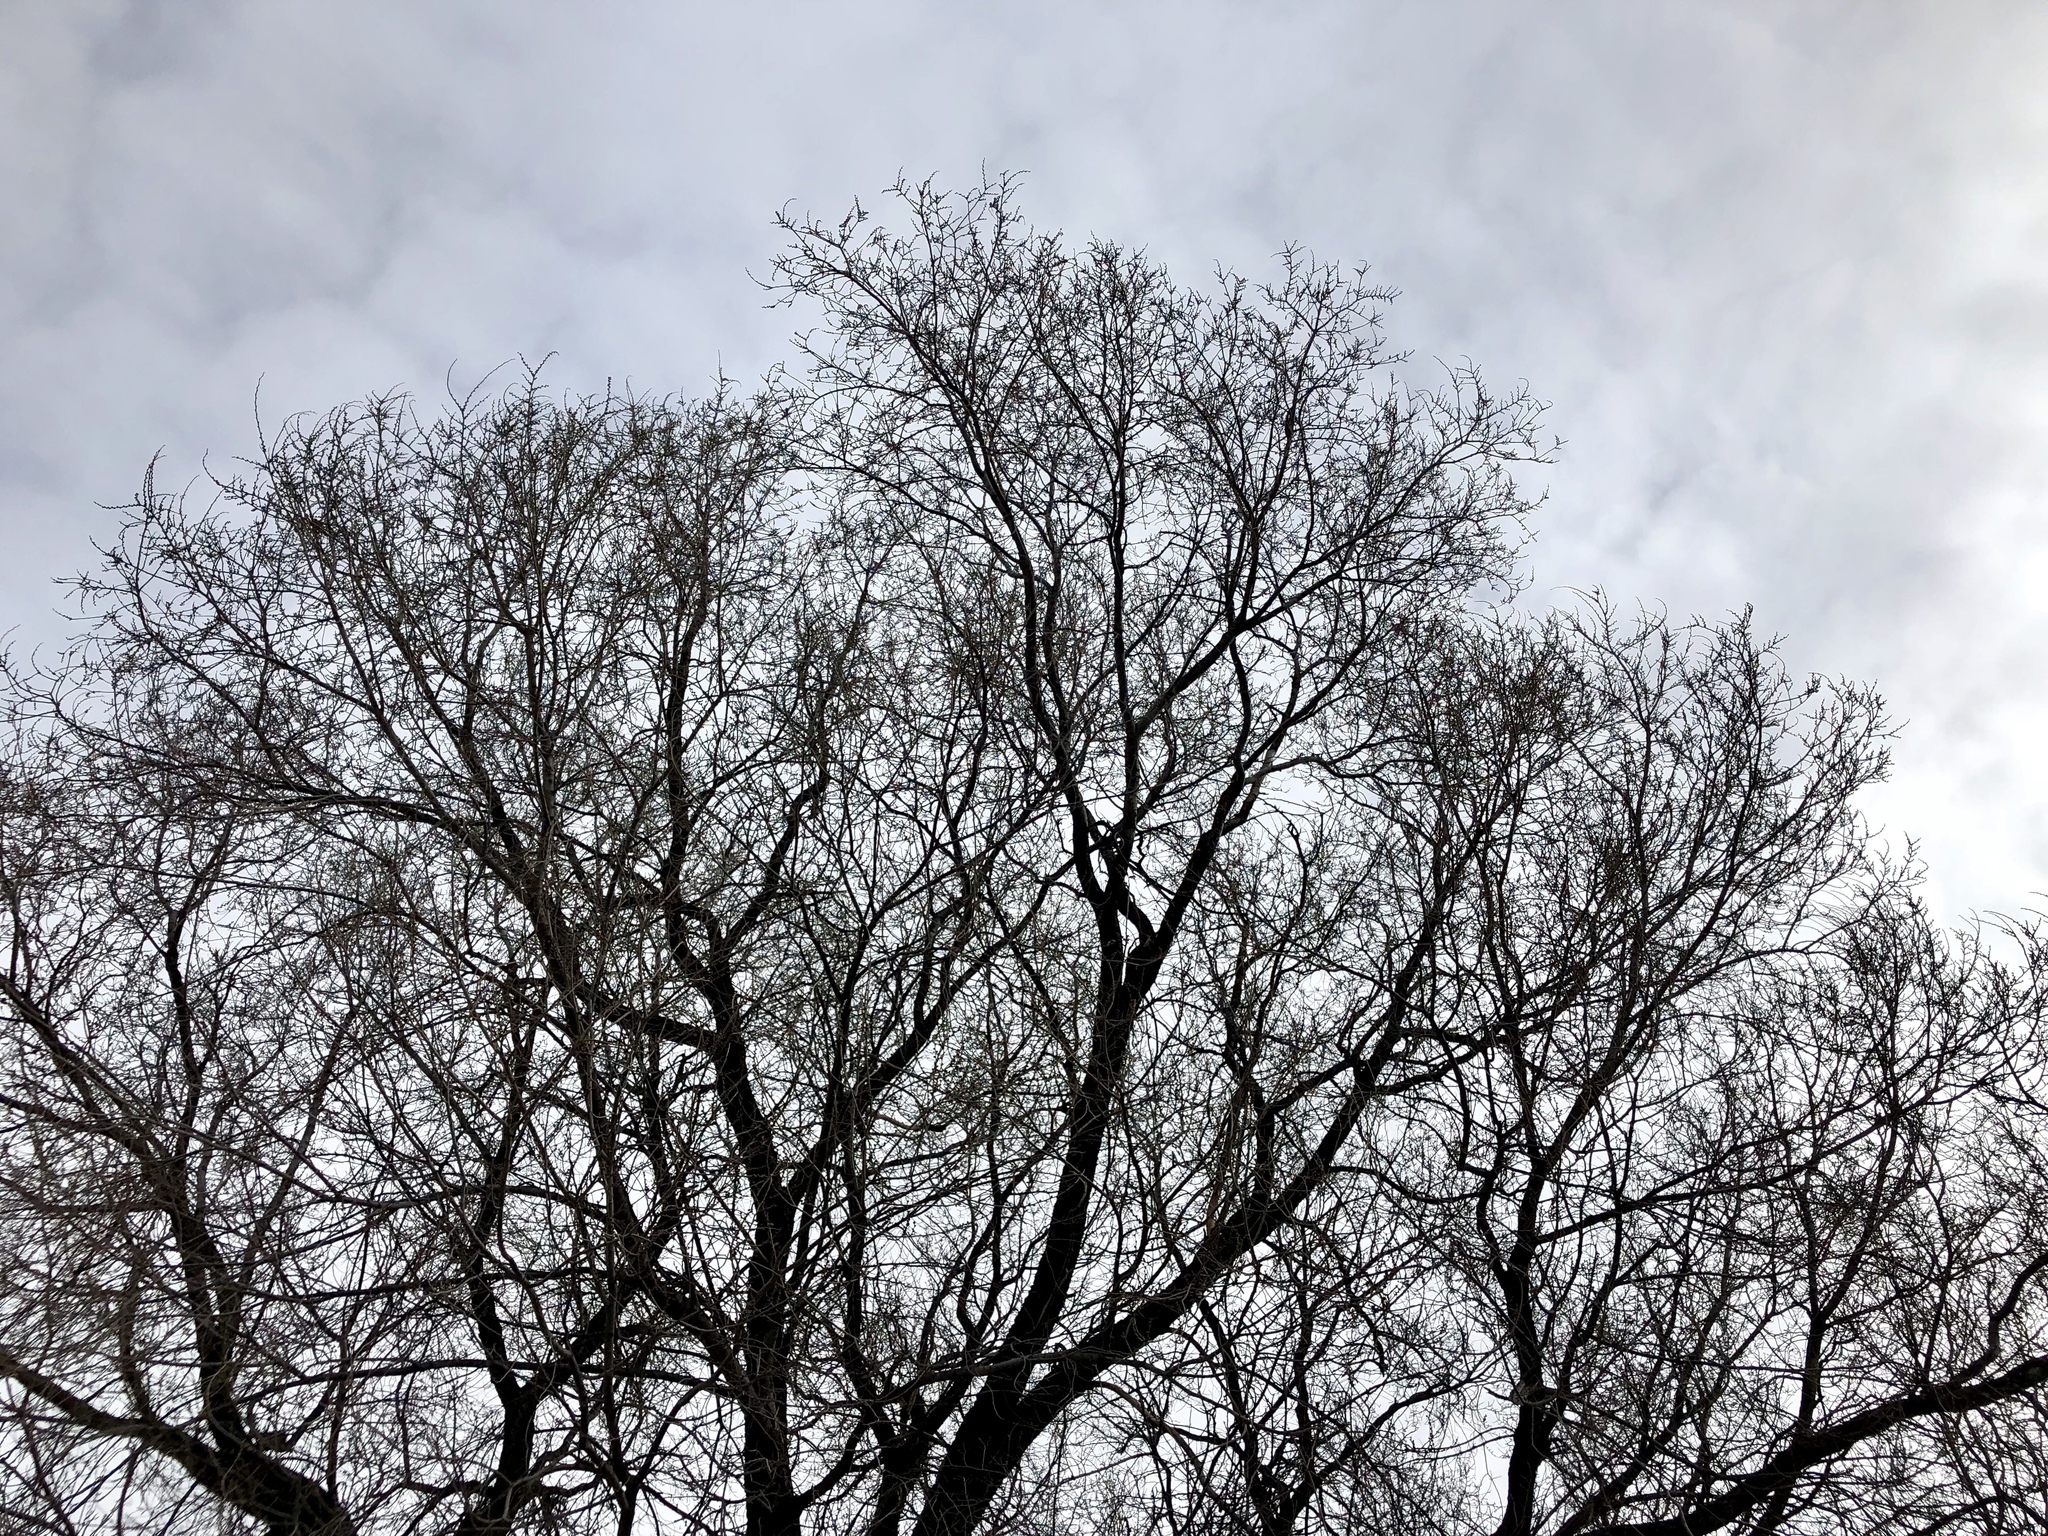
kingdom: Plantae
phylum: Tracheophyta
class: Magnoliopsida
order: Rosales
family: Ulmaceae
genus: Ulmus
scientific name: Ulmus pumila
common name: Siberian elm
